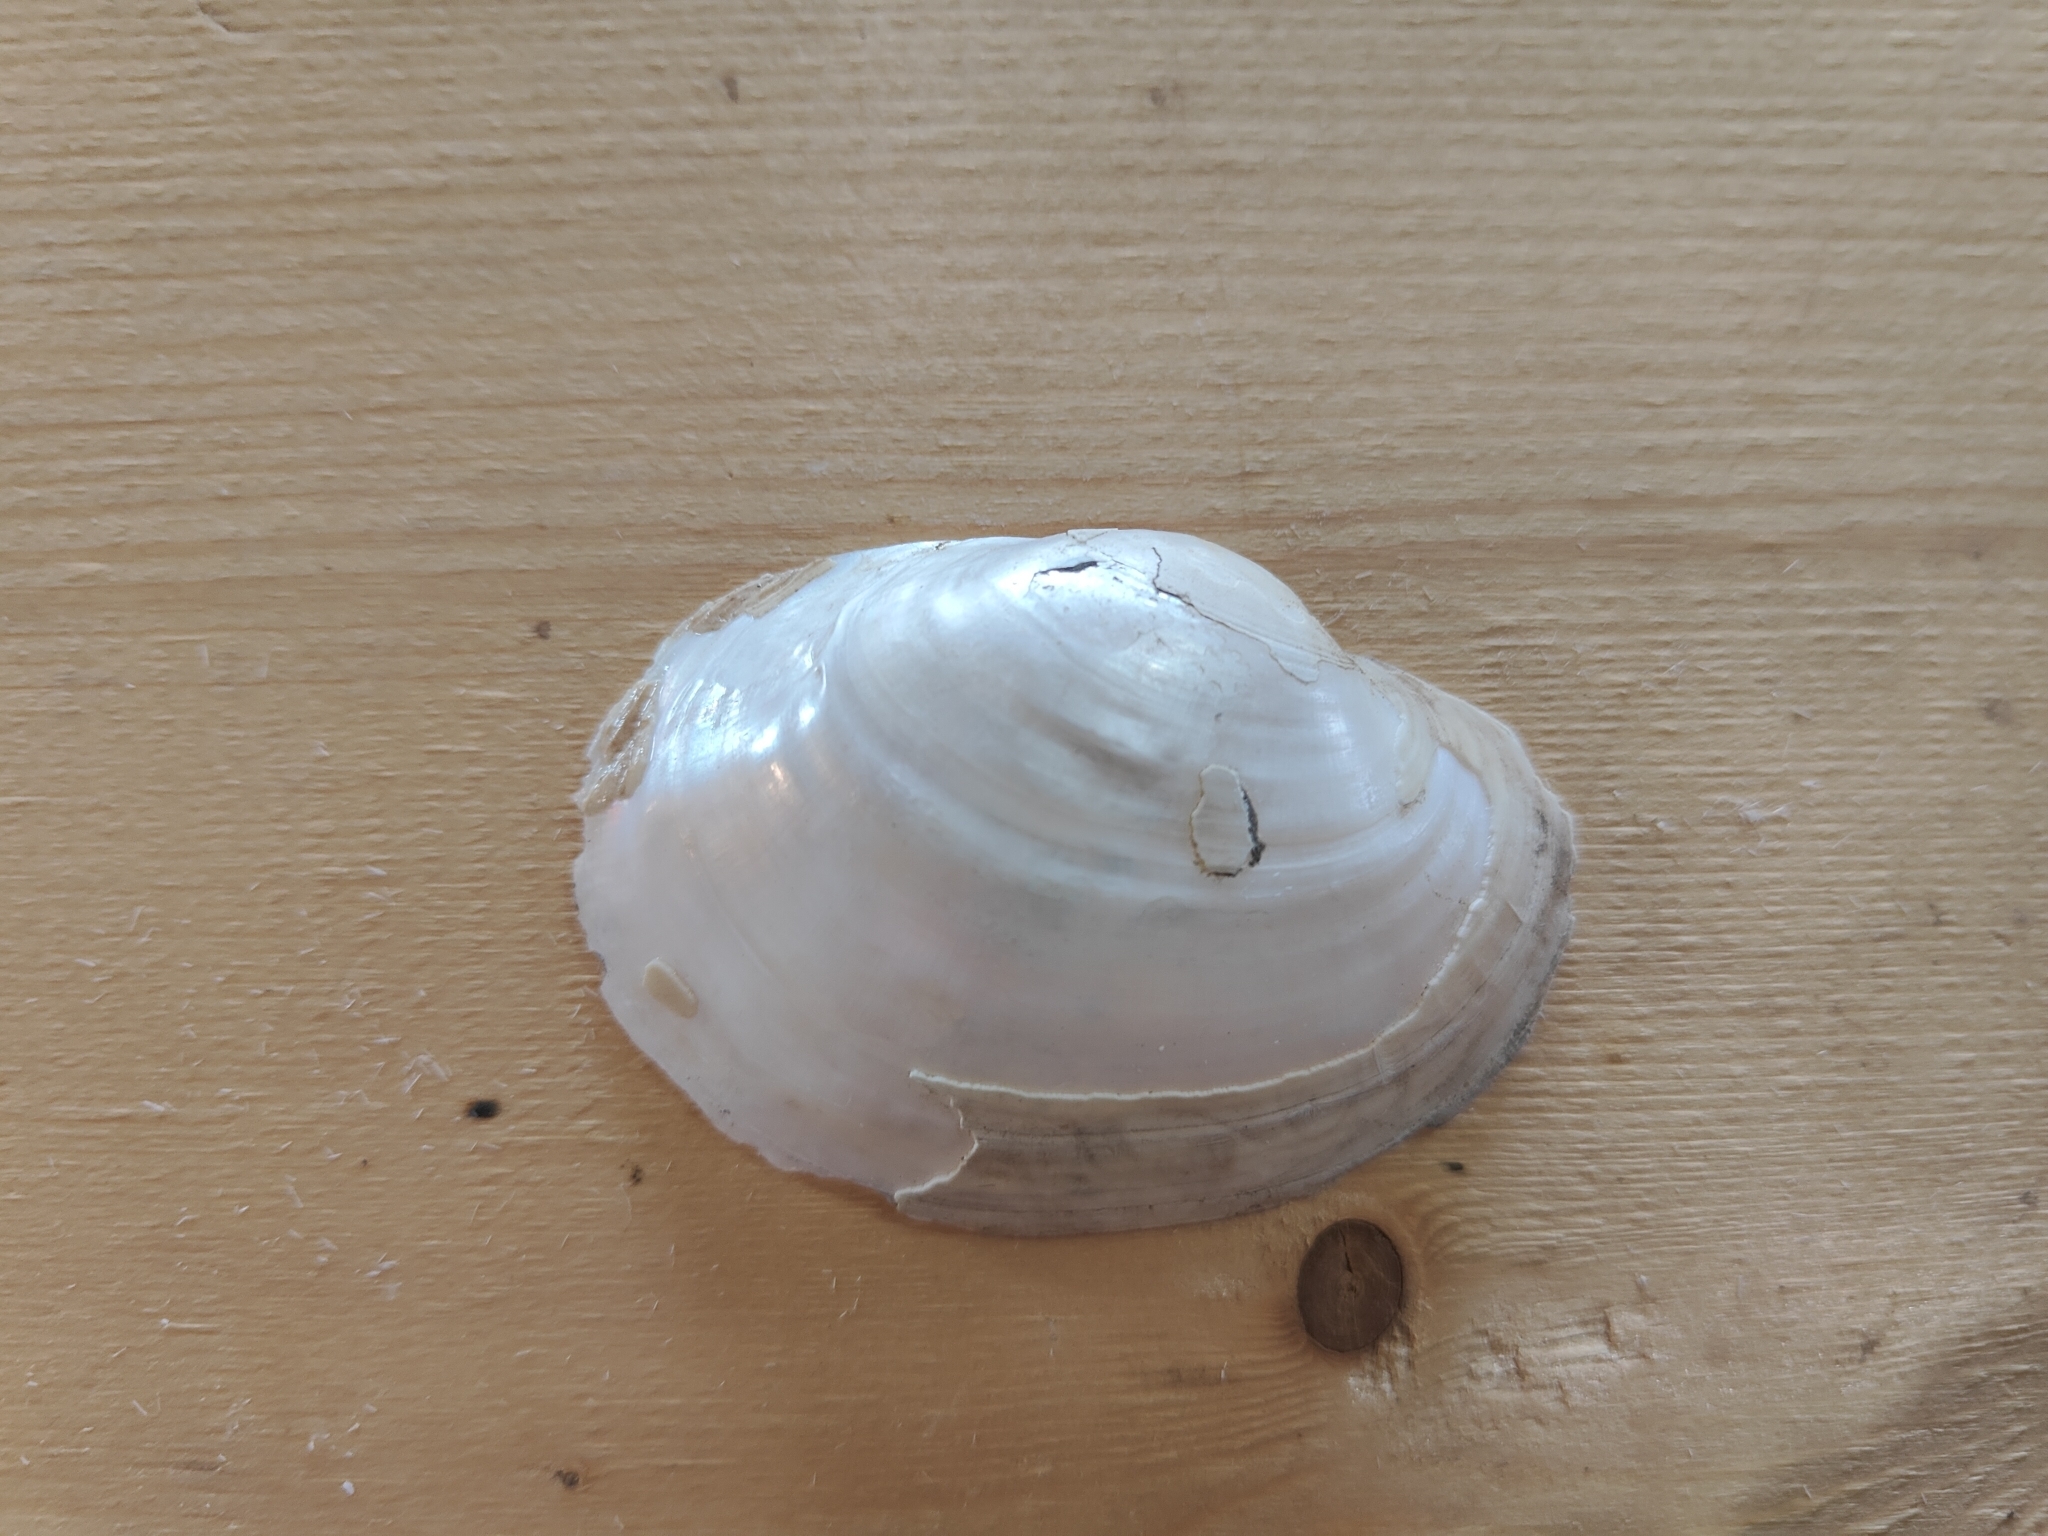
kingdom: Animalia
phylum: Mollusca
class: Bivalvia
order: Unionida
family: Unionidae
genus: Lampsilis
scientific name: Lampsilis cardium
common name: Plain pocketbook
